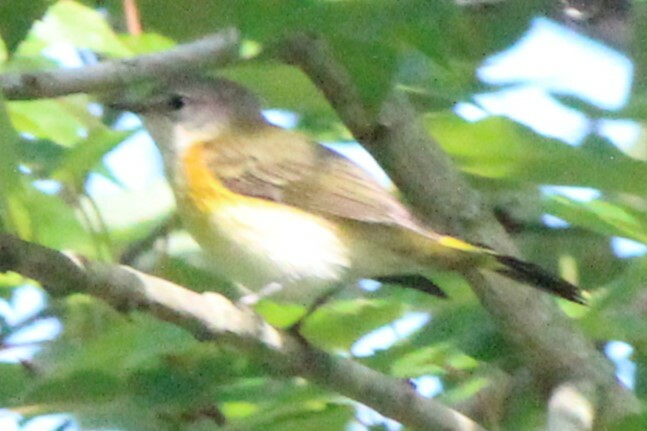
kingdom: Animalia
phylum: Chordata
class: Aves
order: Passeriformes
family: Parulidae
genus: Setophaga
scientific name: Setophaga ruticilla
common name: American redstart
